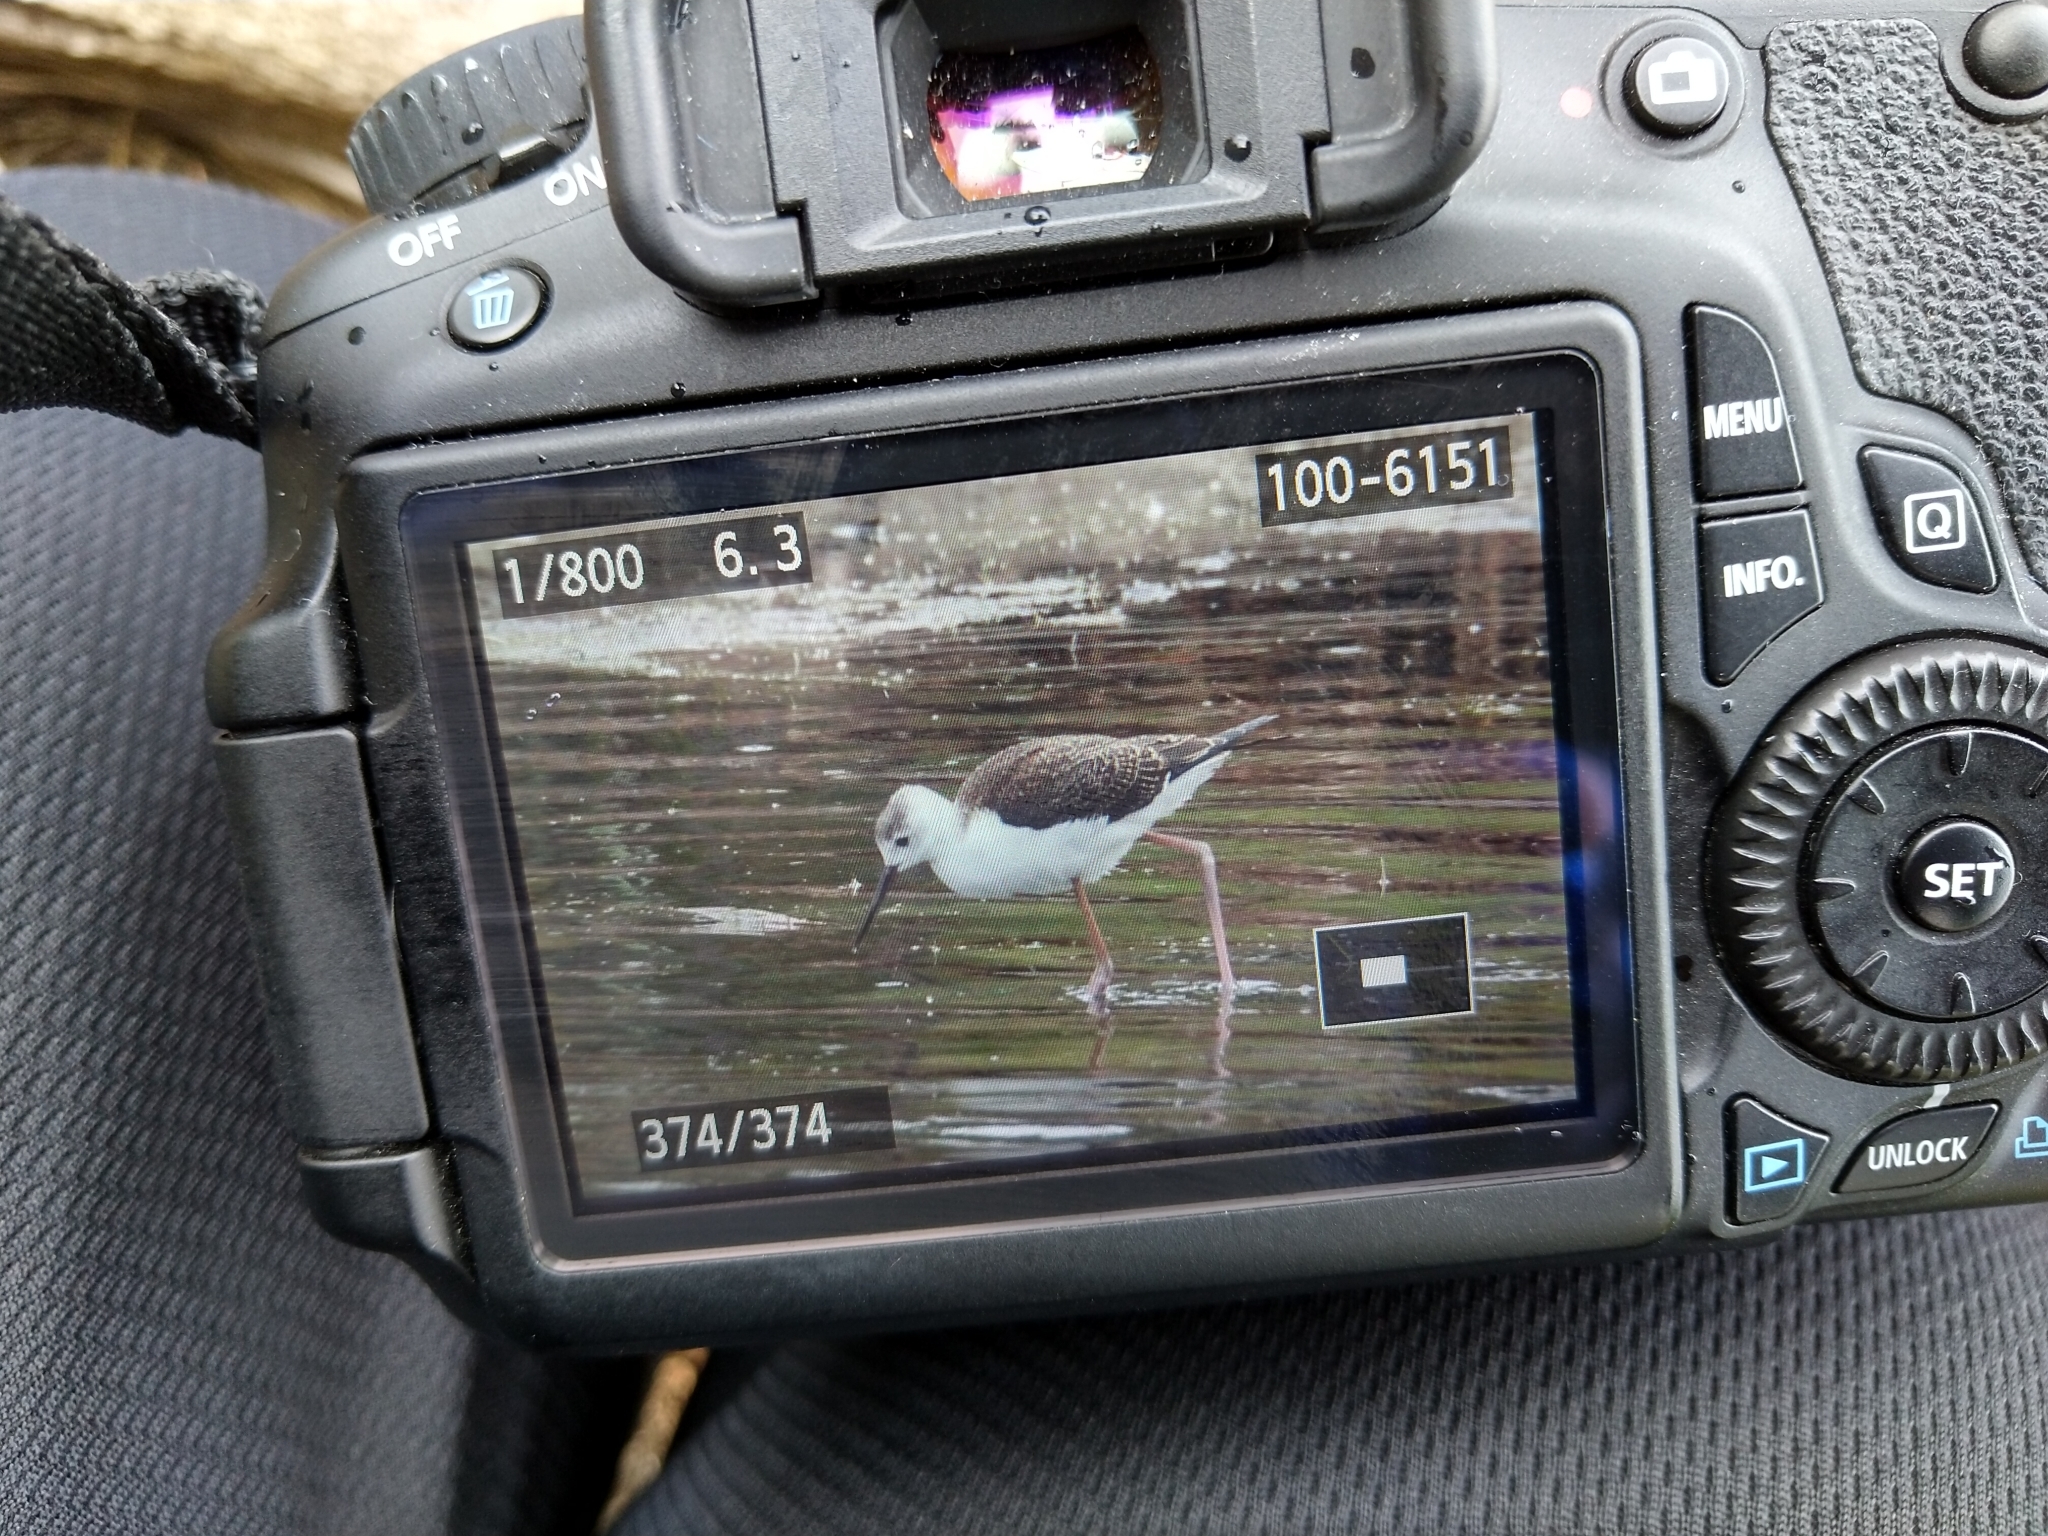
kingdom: Animalia
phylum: Chordata
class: Aves
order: Charadriiformes
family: Recurvirostridae
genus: Himantopus
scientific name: Himantopus leucocephalus
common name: White-headed stilt
